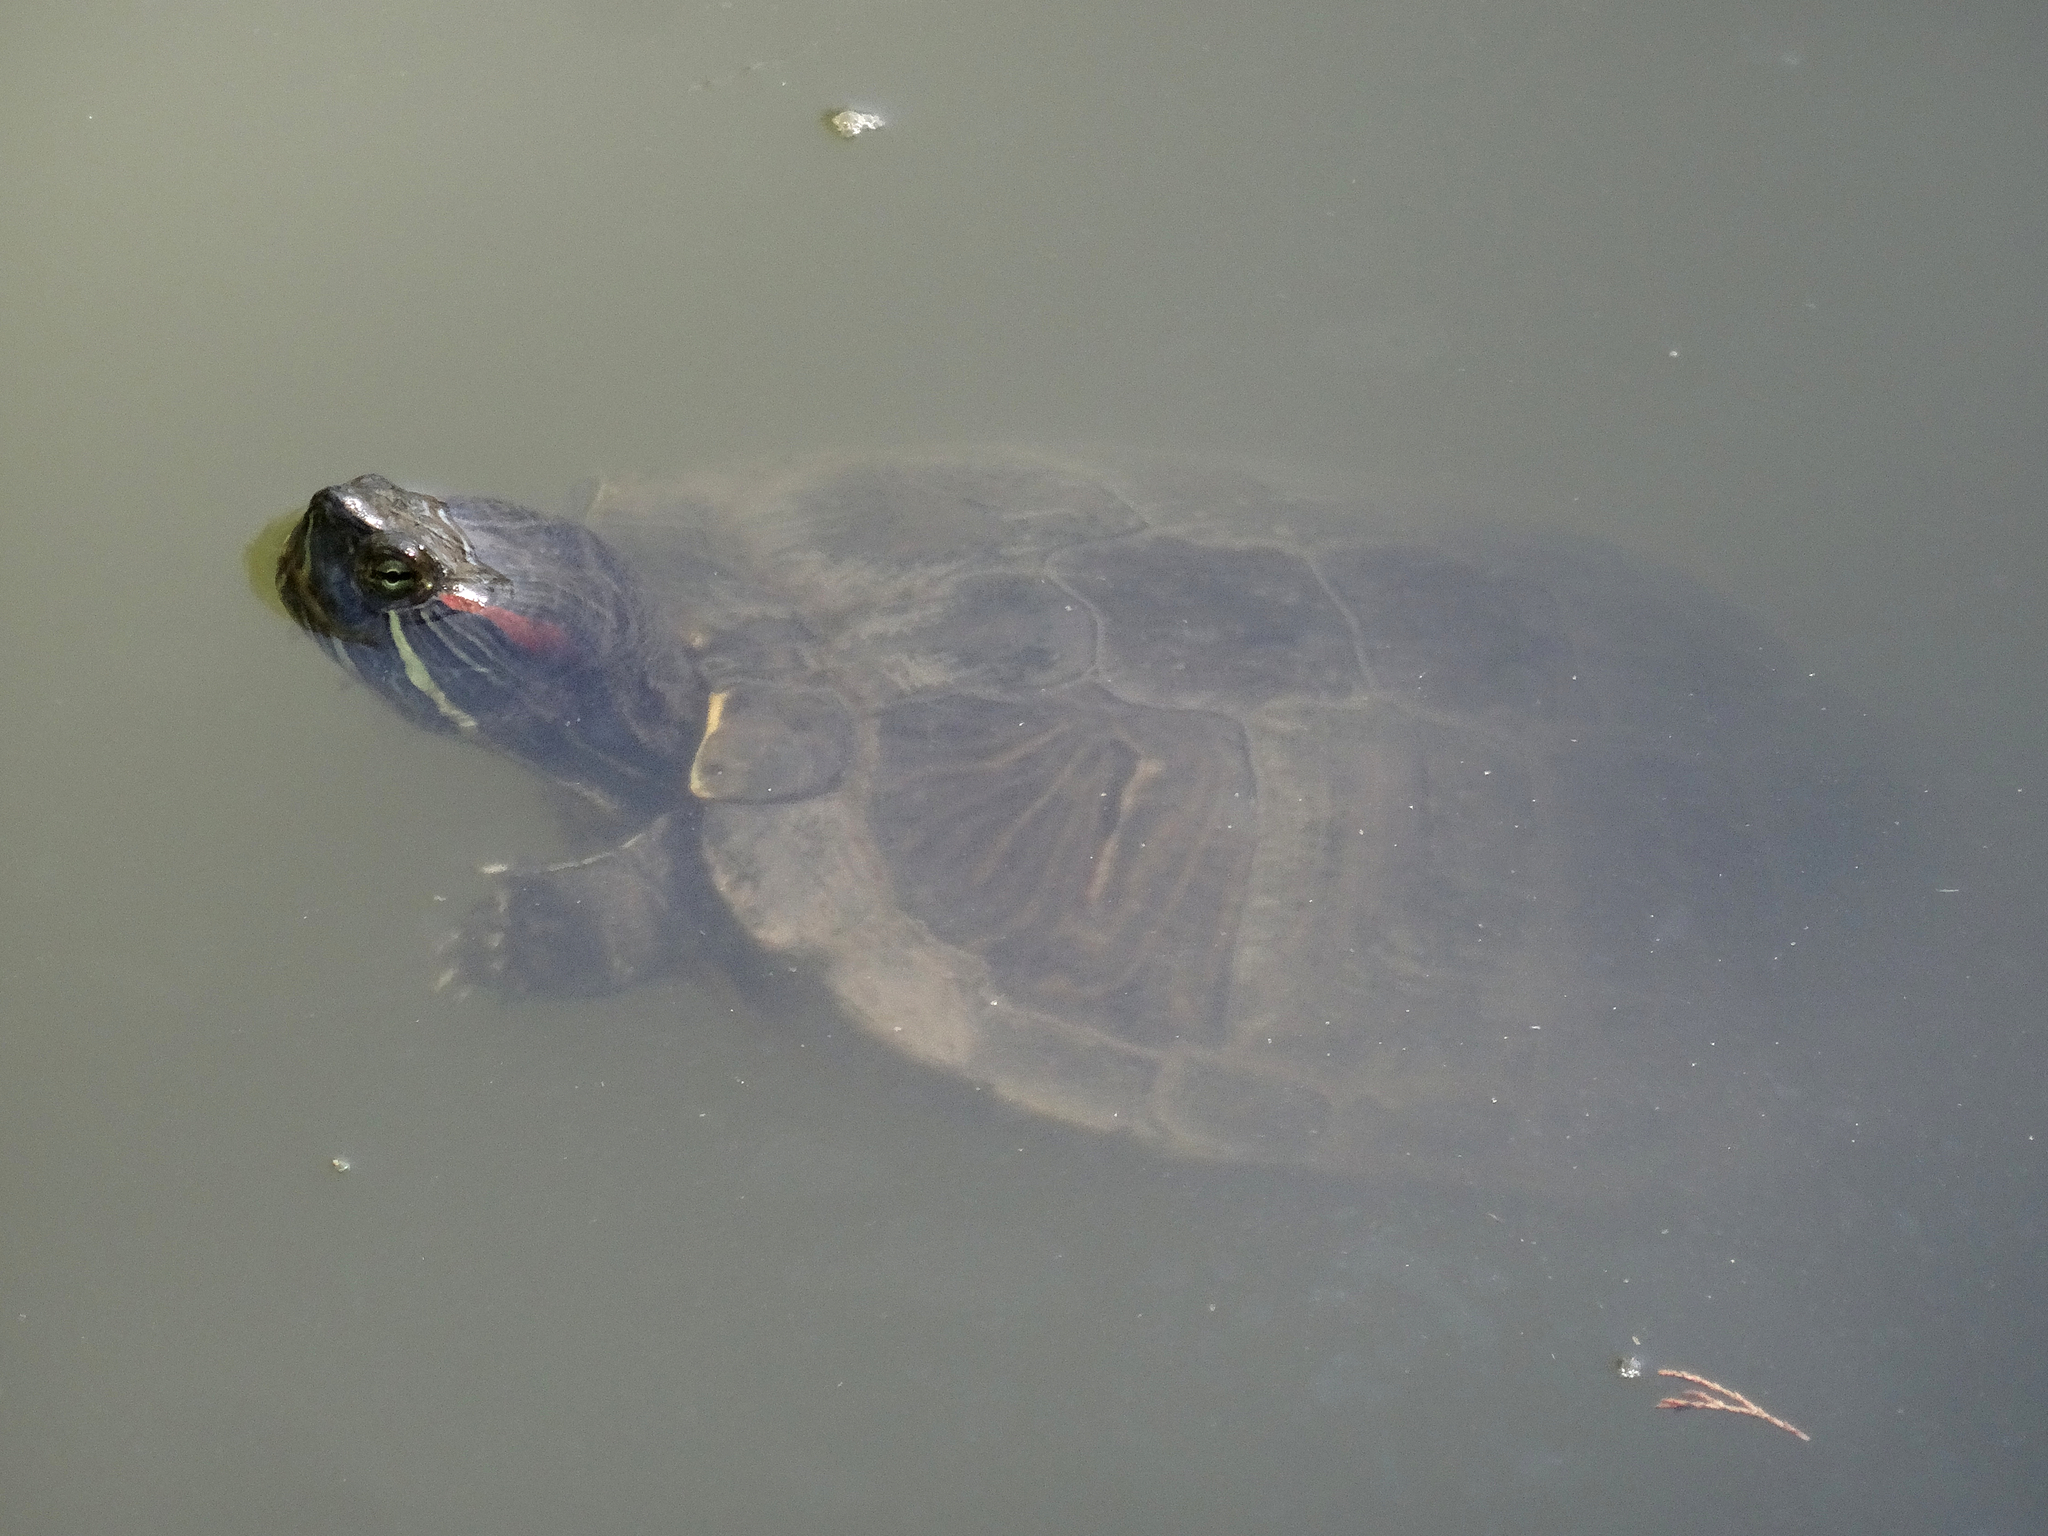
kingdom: Animalia
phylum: Chordata
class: Testudines
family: Emydidae
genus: Trachemys
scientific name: Trachemys scripta
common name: Slider
